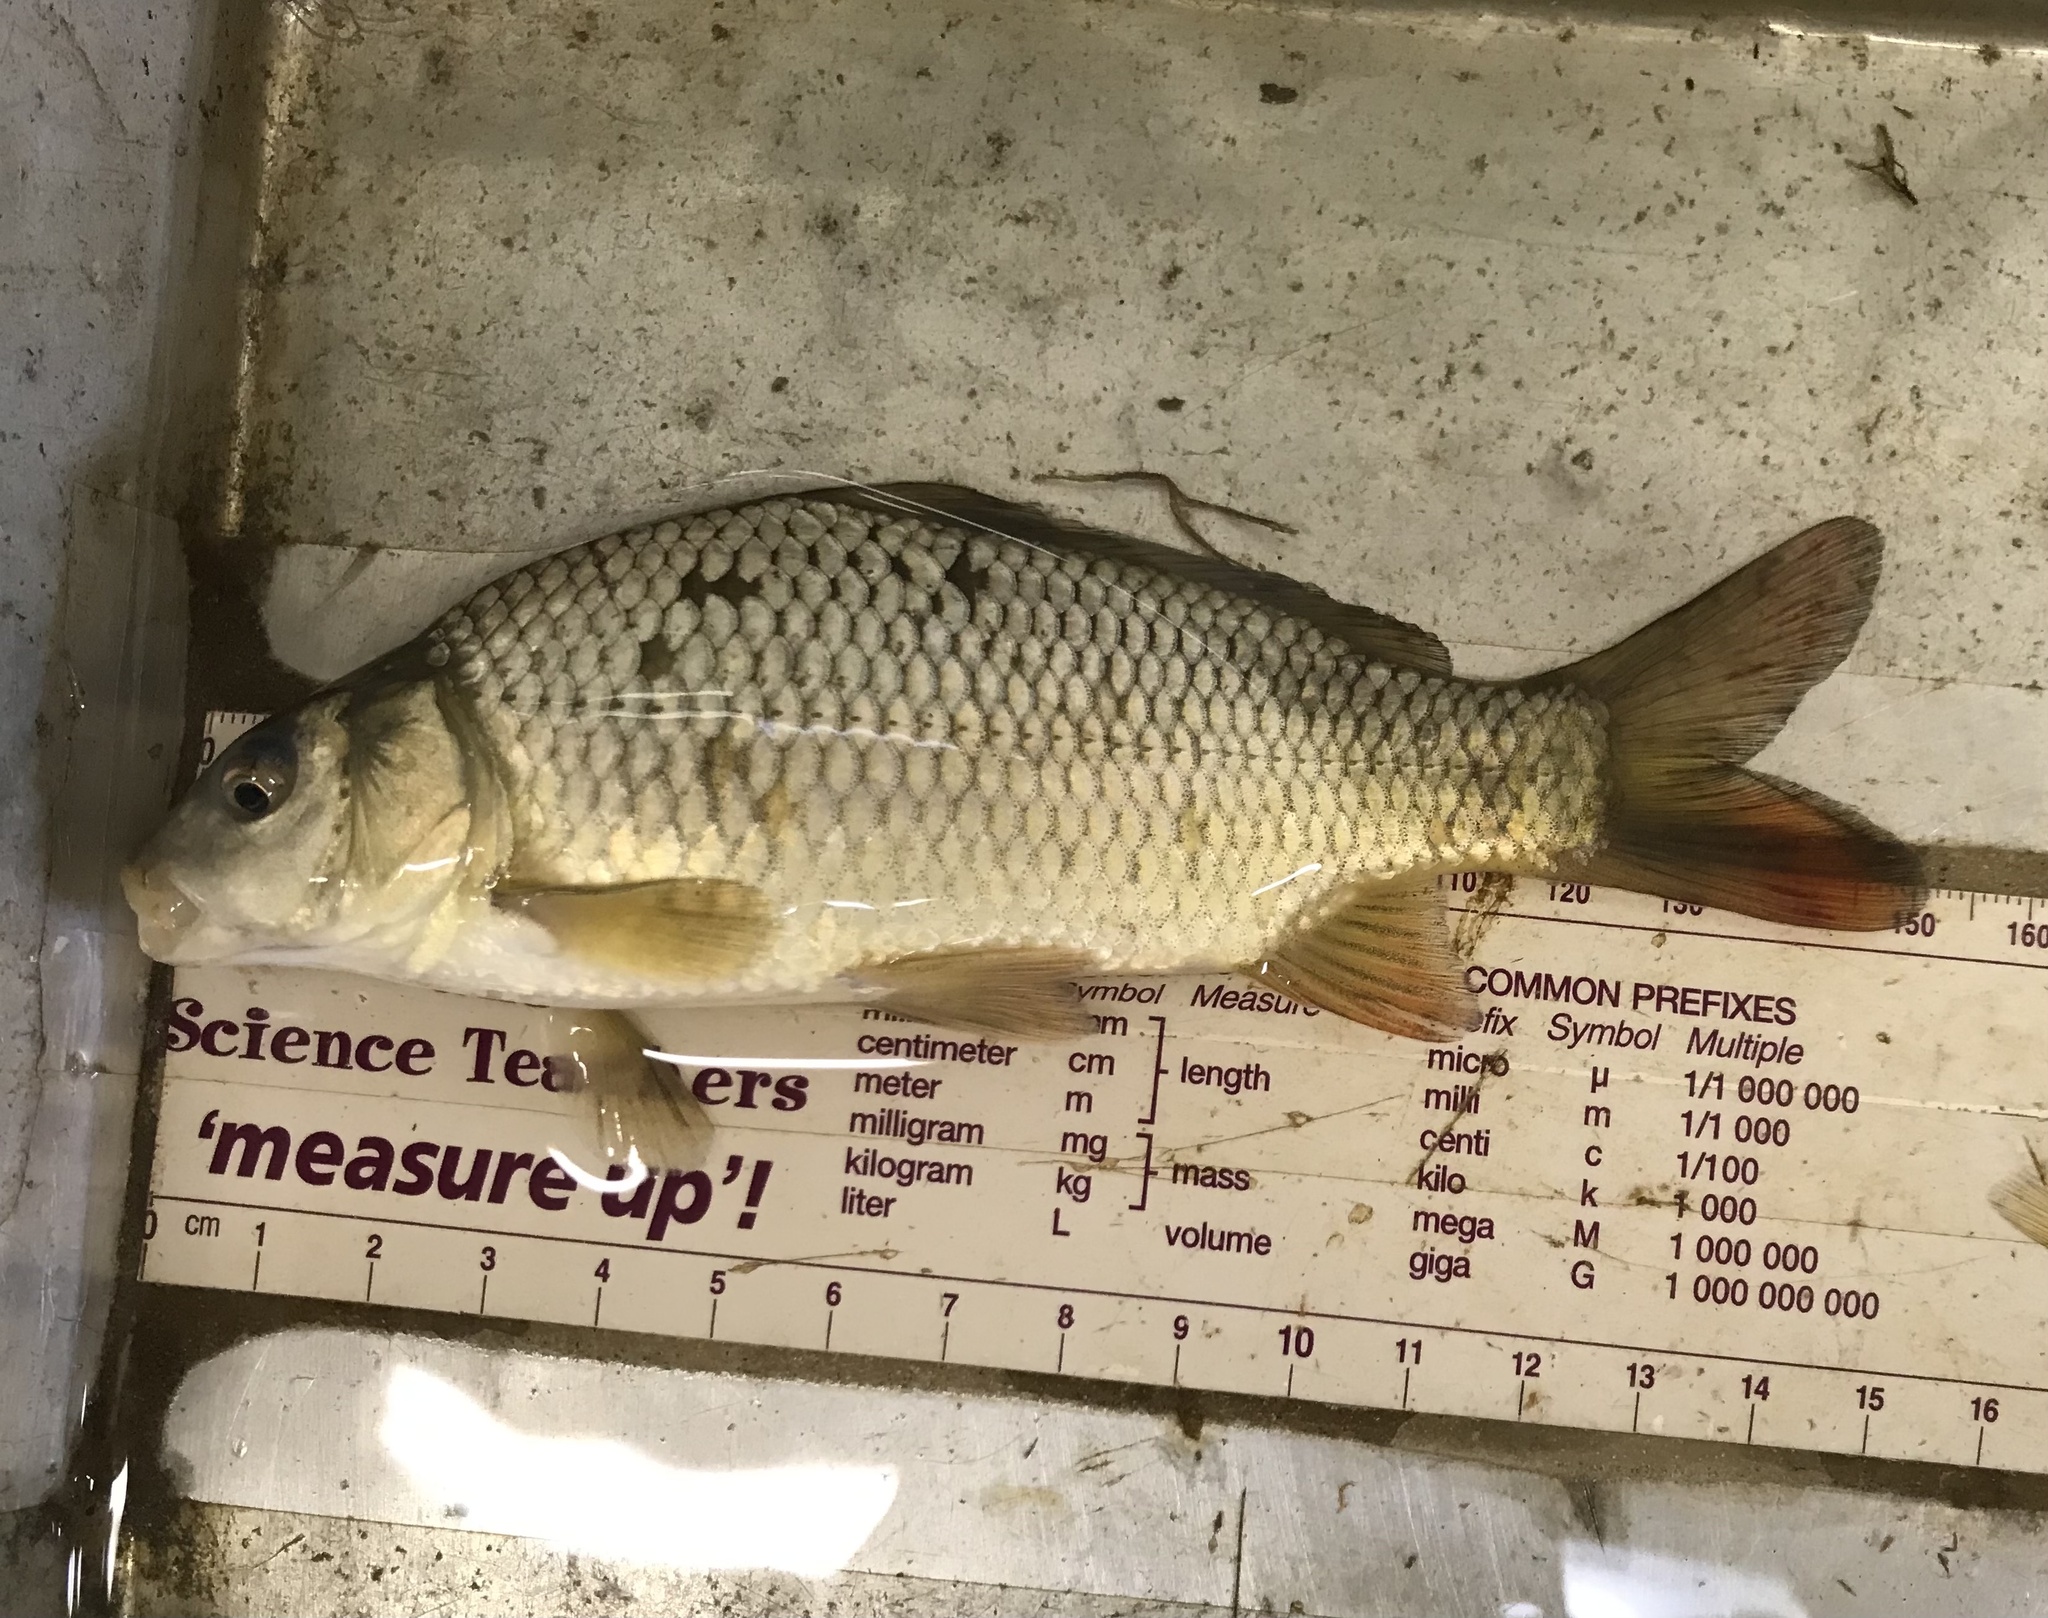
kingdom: Animalia
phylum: Chordata
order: Cypriniformes
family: Cyprinidae
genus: Cyprinus
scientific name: Cyprinus carpio
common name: Common carp
